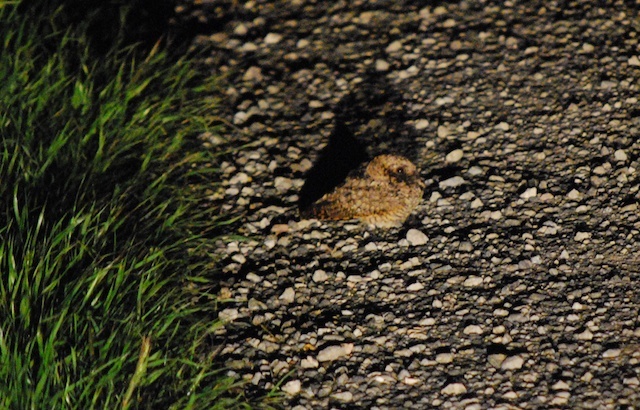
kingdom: Animalia
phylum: Chordata
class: Aves
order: Caprimulgiformes
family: Caprimulgidae
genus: Phalaenoptilus
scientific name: Phalaenoptilus nuttallii
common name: Common poorwill
